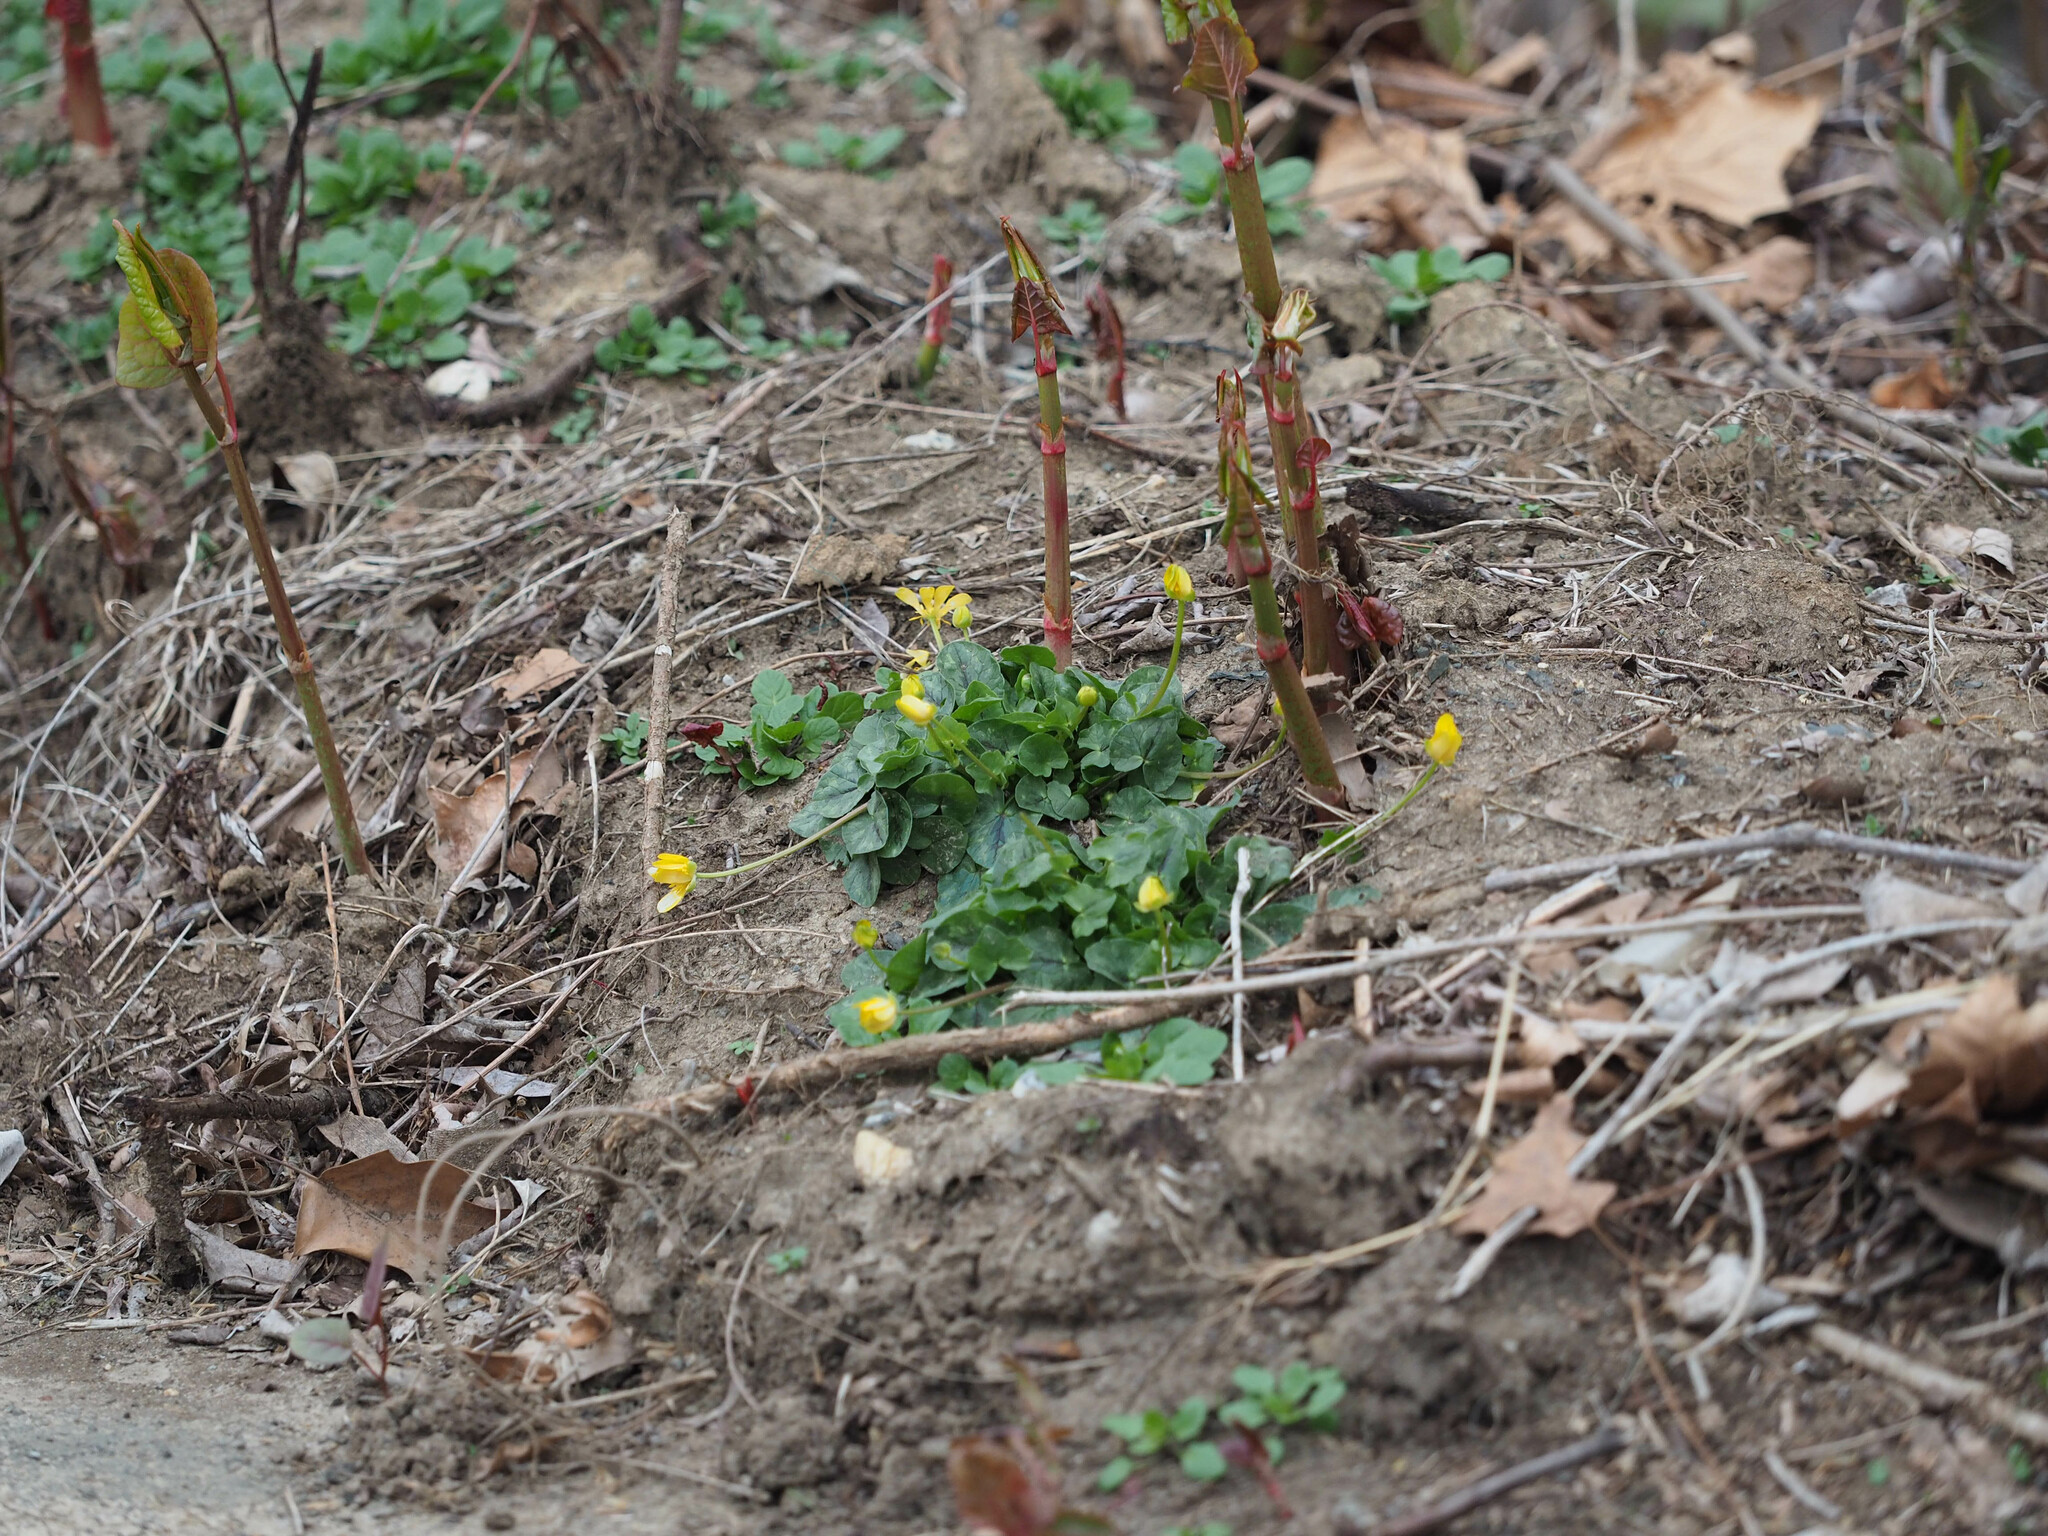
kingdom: Plantae
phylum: Tracheophyta
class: Magnoliopsida
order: Ranunculales
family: Ranunculaceae
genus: Ficaria
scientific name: Ficaria verna
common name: Lesser celandine
